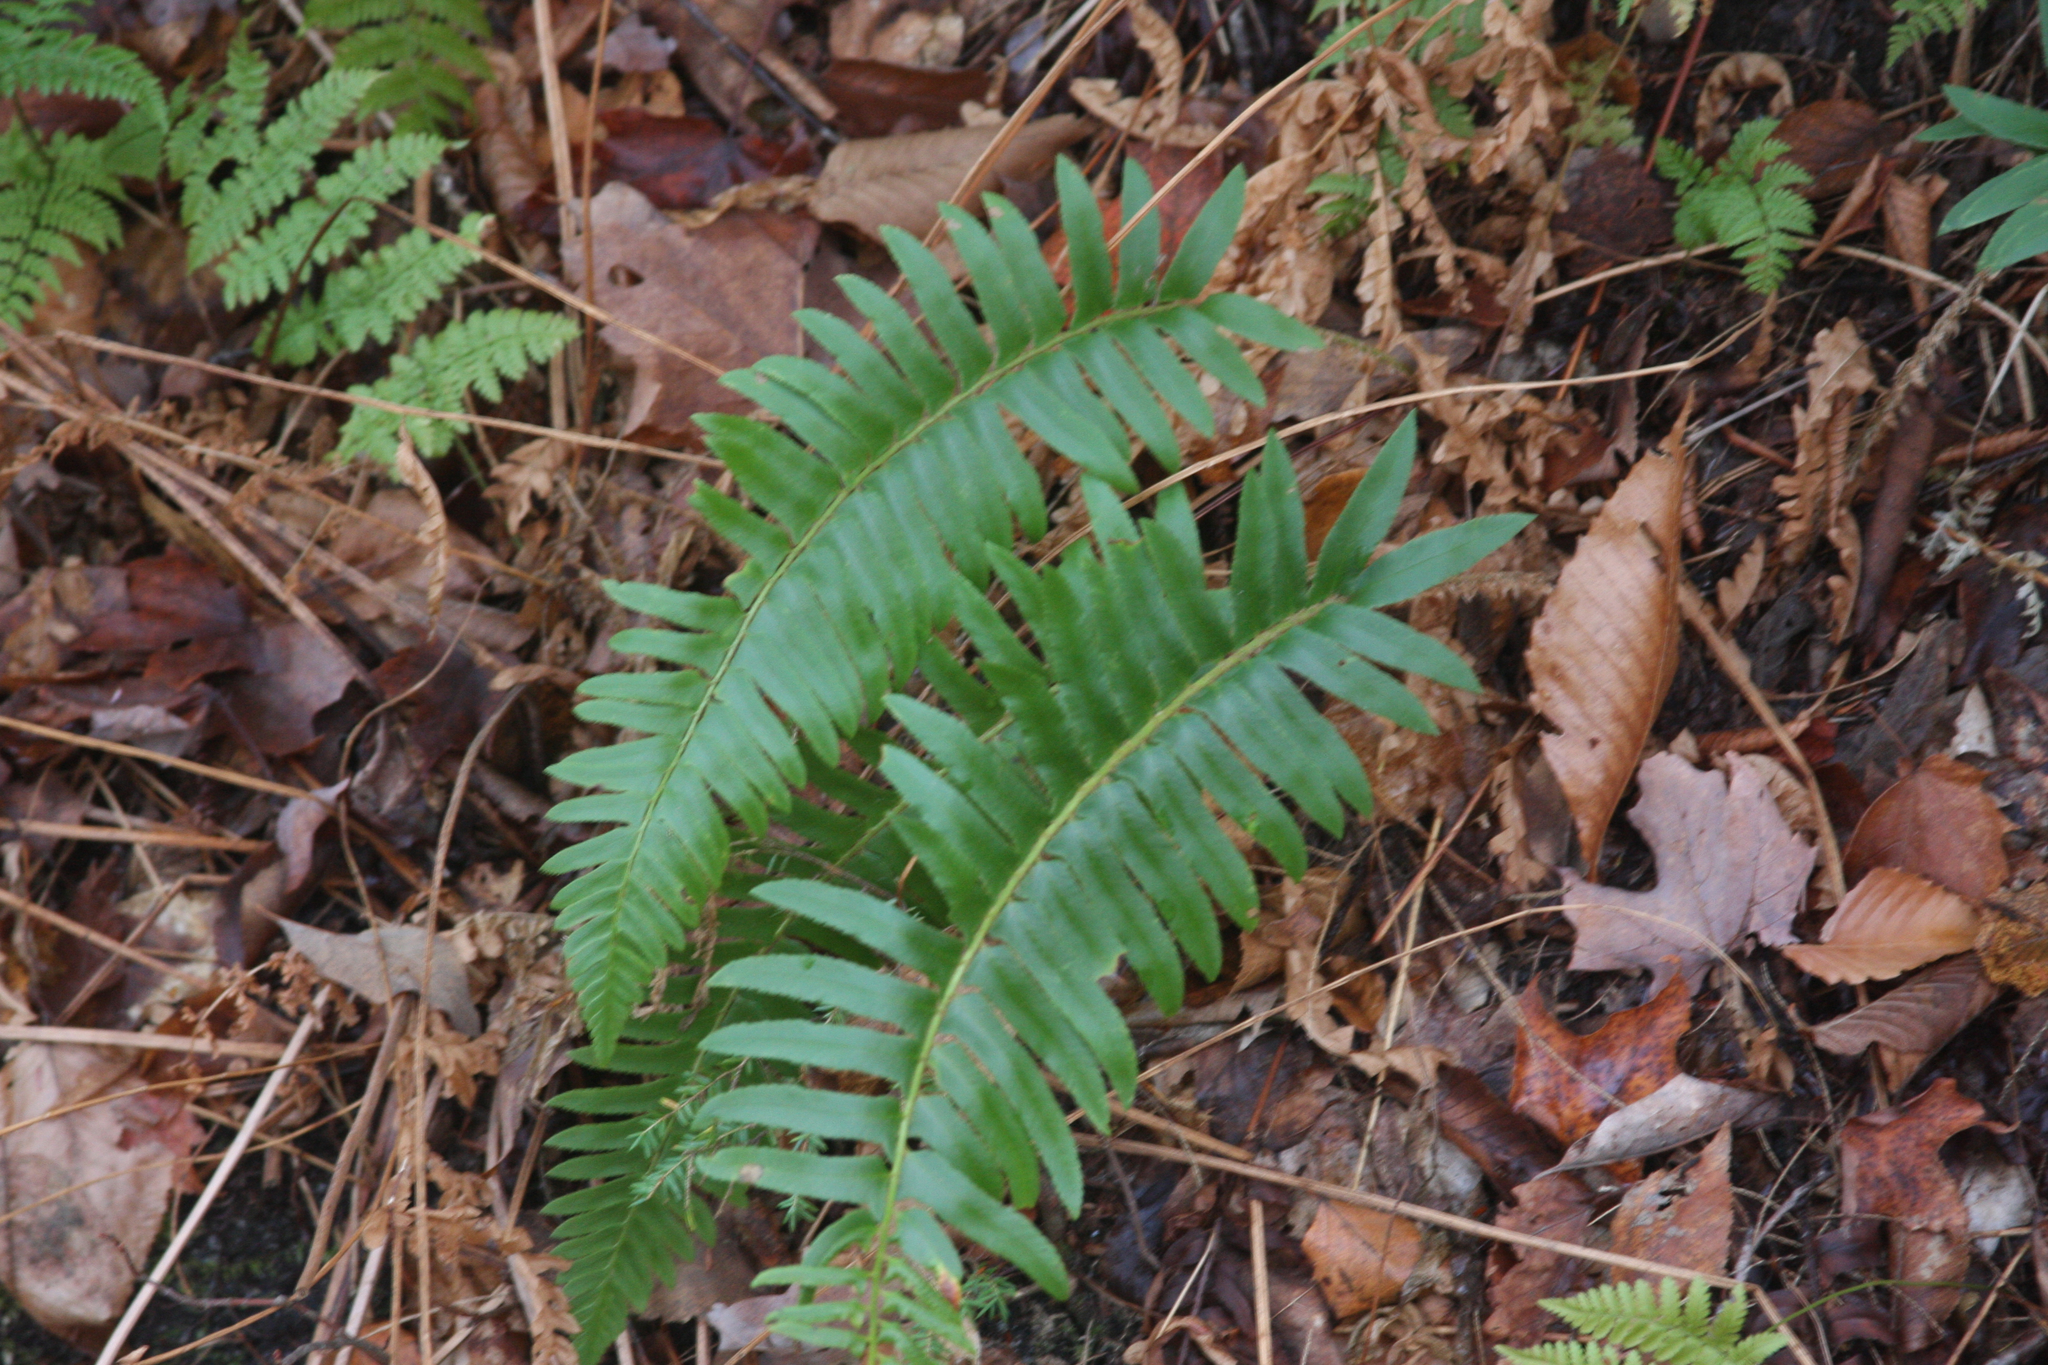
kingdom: Plantae
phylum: Tracheophyta
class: Polypodiopsida
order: Polypodiales
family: Dryopteridaceae
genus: Polystichum
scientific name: Polystichum acrostichoides
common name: Christmas fern
